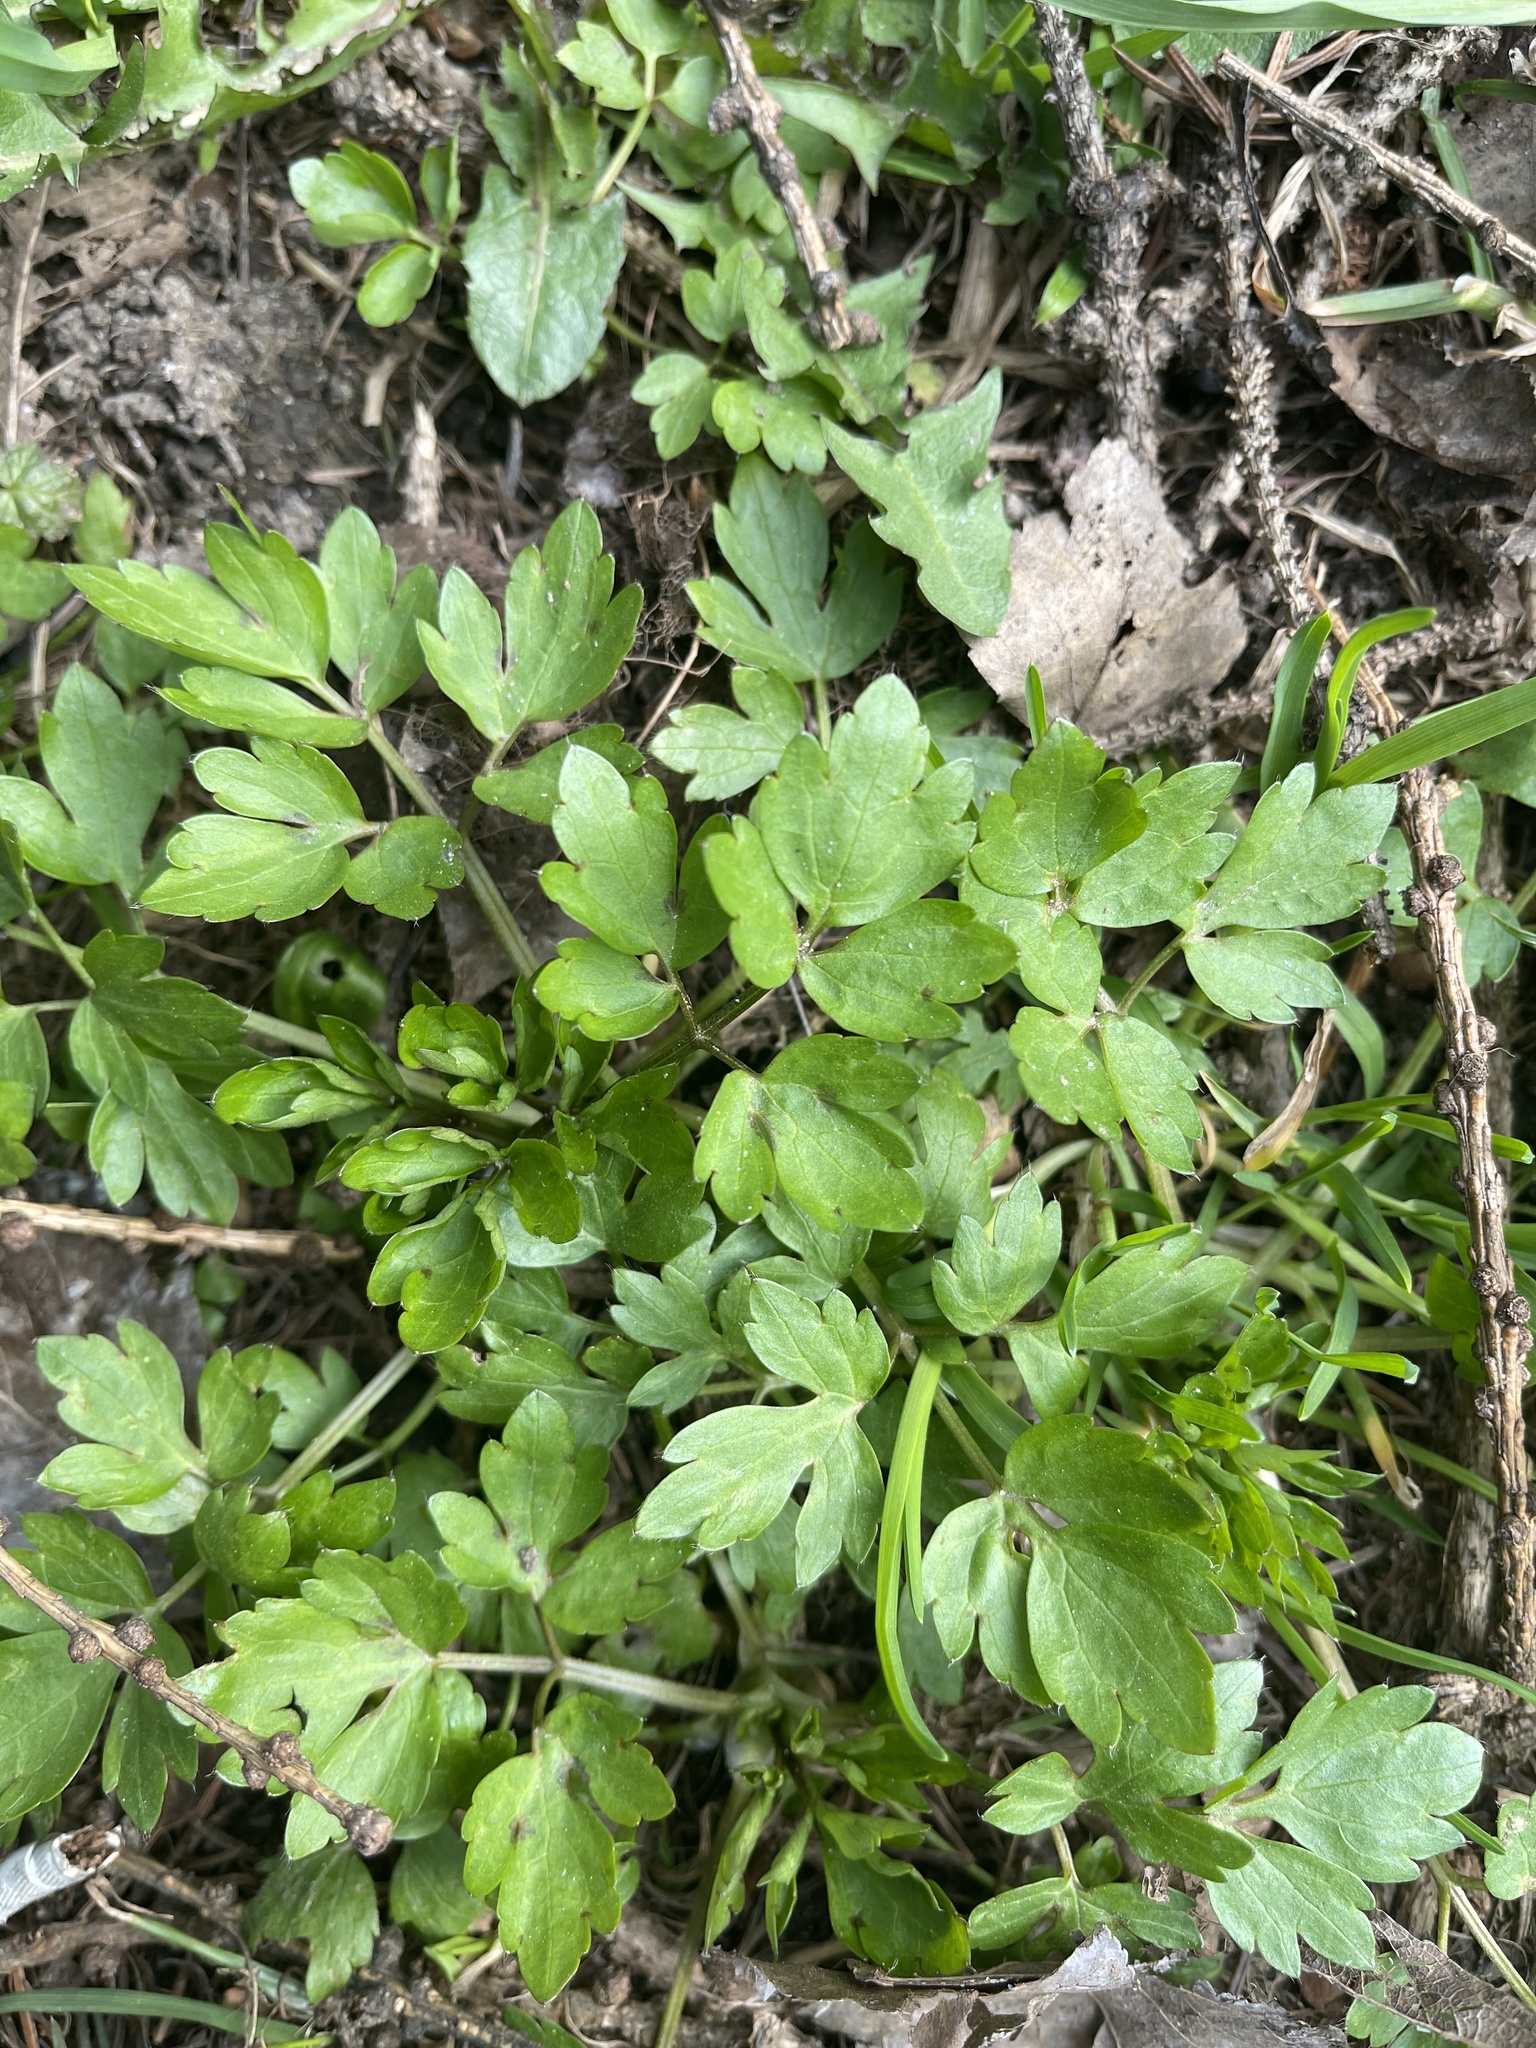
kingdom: Plantae
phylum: Tracheophyta
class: Magnoliopsida
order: Ranunculales
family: Ranunculaceae
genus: Ranunculus
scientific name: Ranunculus repens
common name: Creeping buttercup
